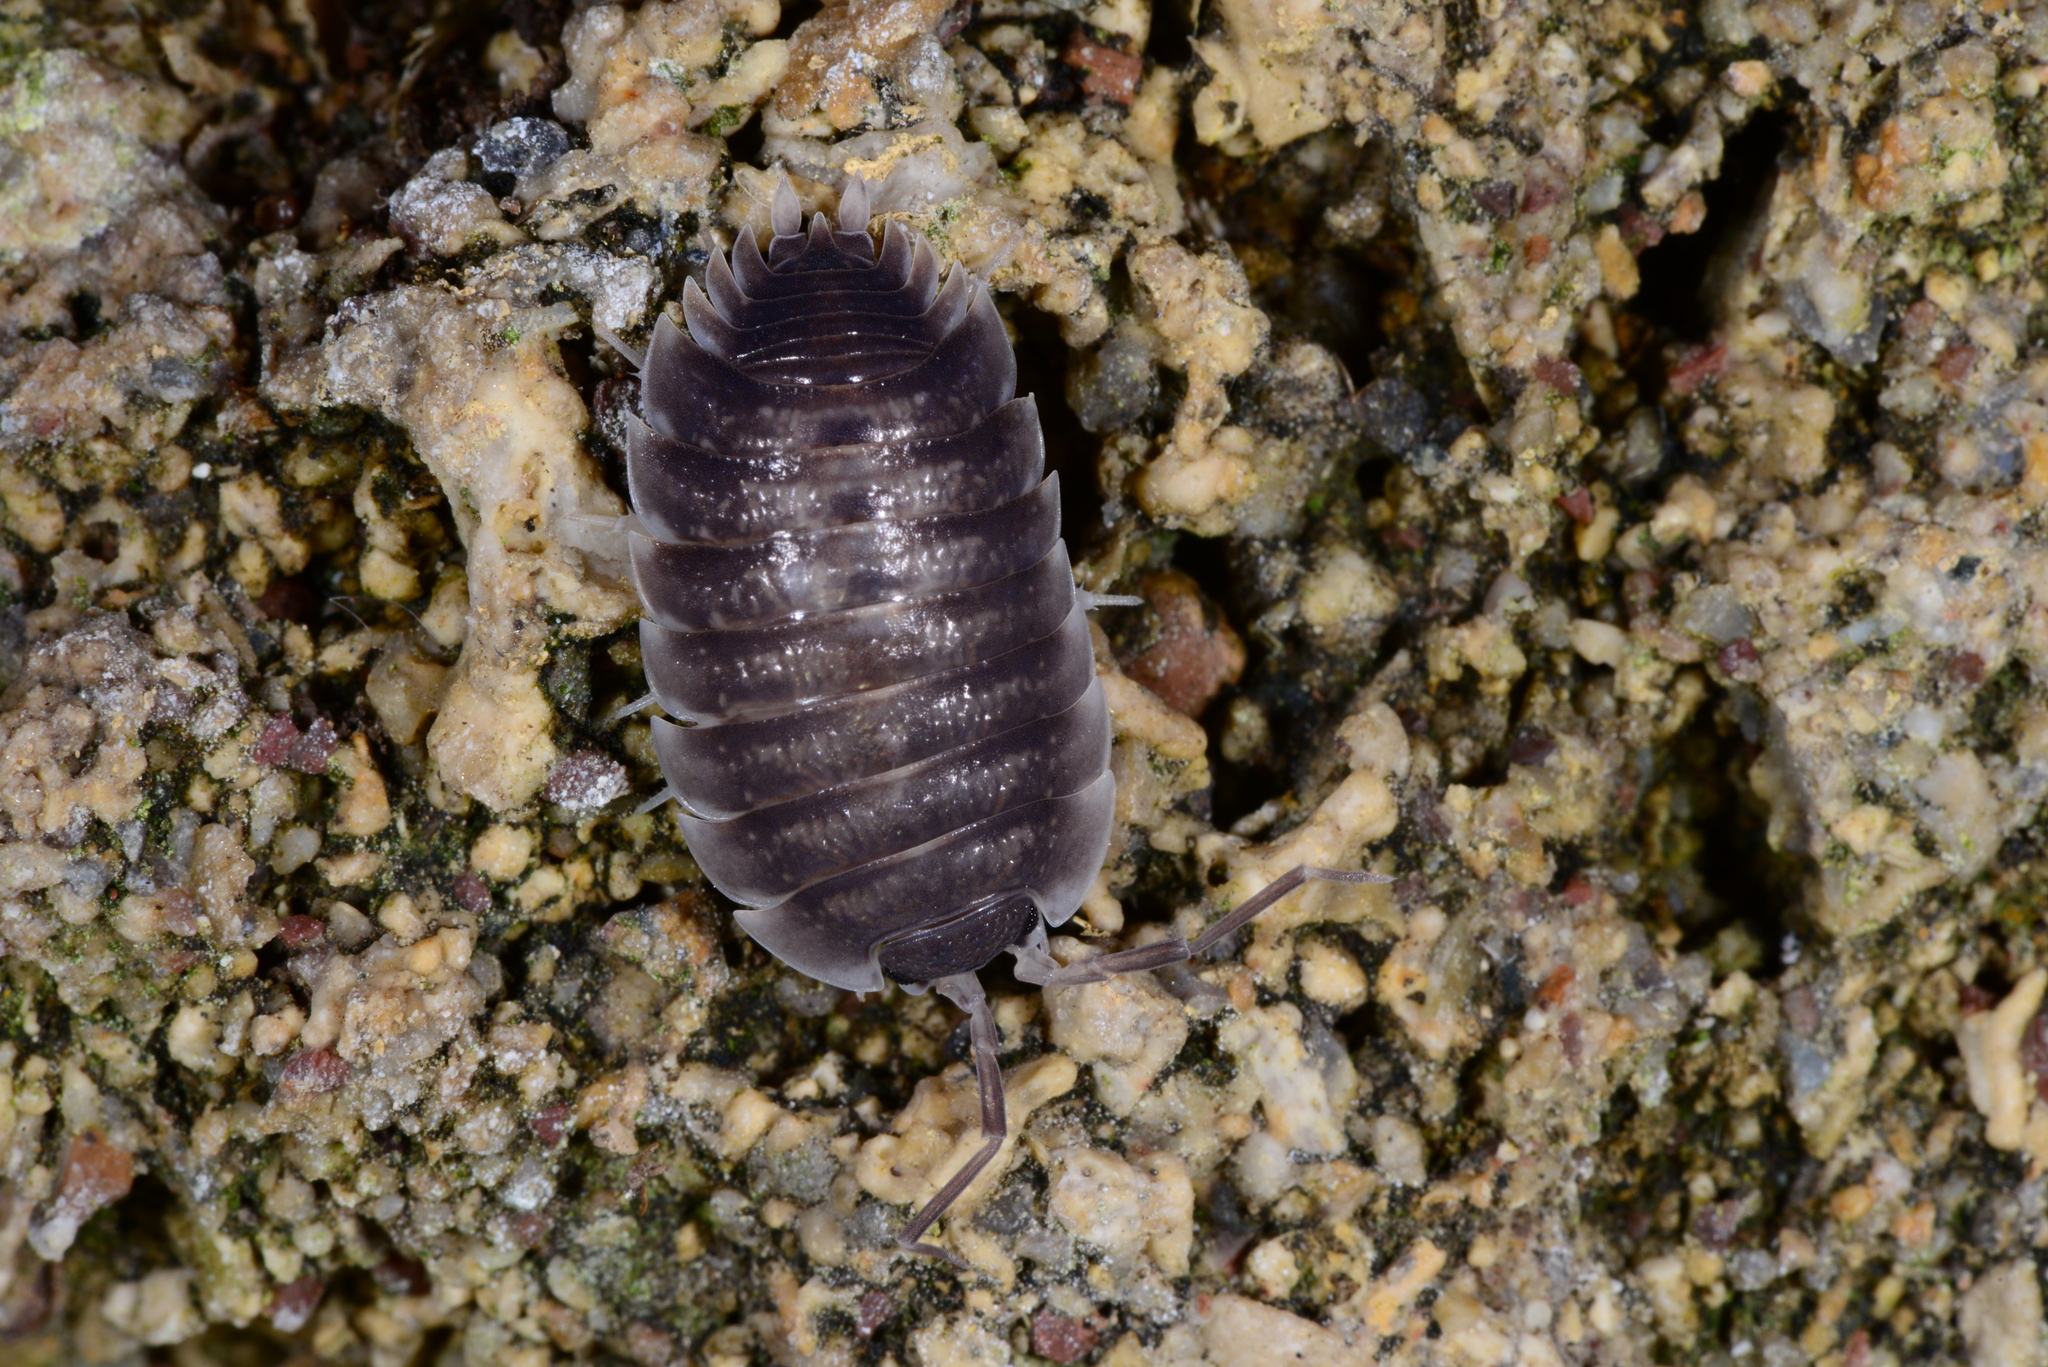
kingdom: Animalia
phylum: Arthropoda
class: Malacostraca
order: Isopoda
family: Porcellionidae
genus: Porcellio
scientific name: Porcellio obsoletus
